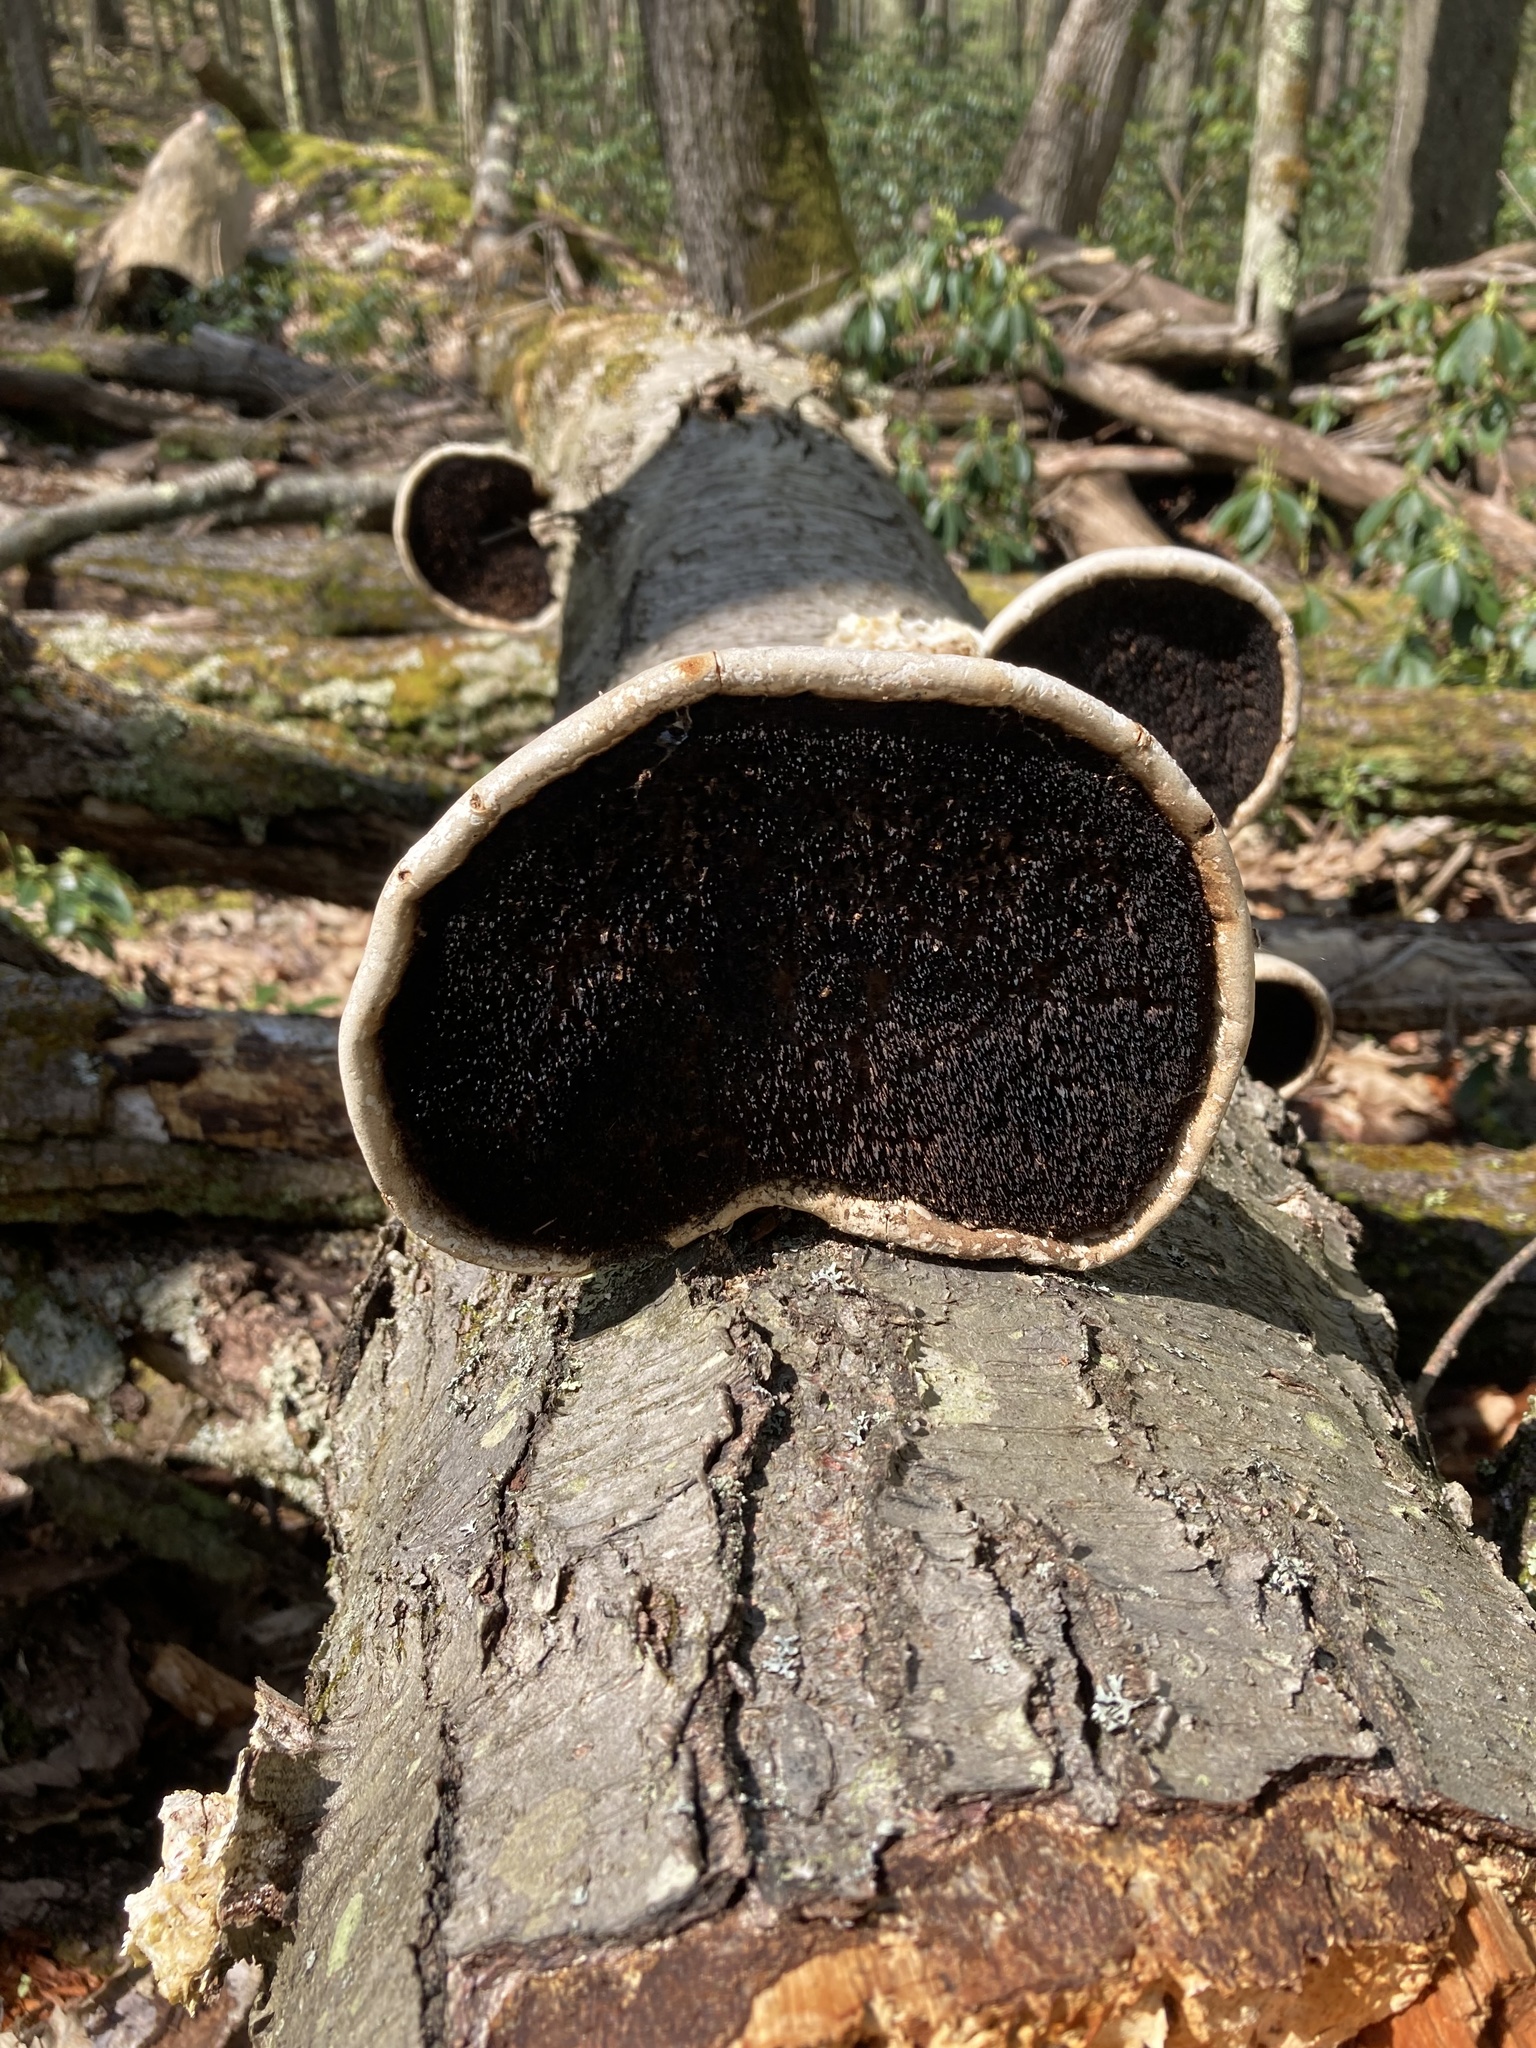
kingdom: Fungi
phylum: Basidiomycota
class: Agaricomycetes
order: Polyporales
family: Fomitopsidaceae
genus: Fomitopsis
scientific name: Fomitopsis betulina
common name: Birch polypore
